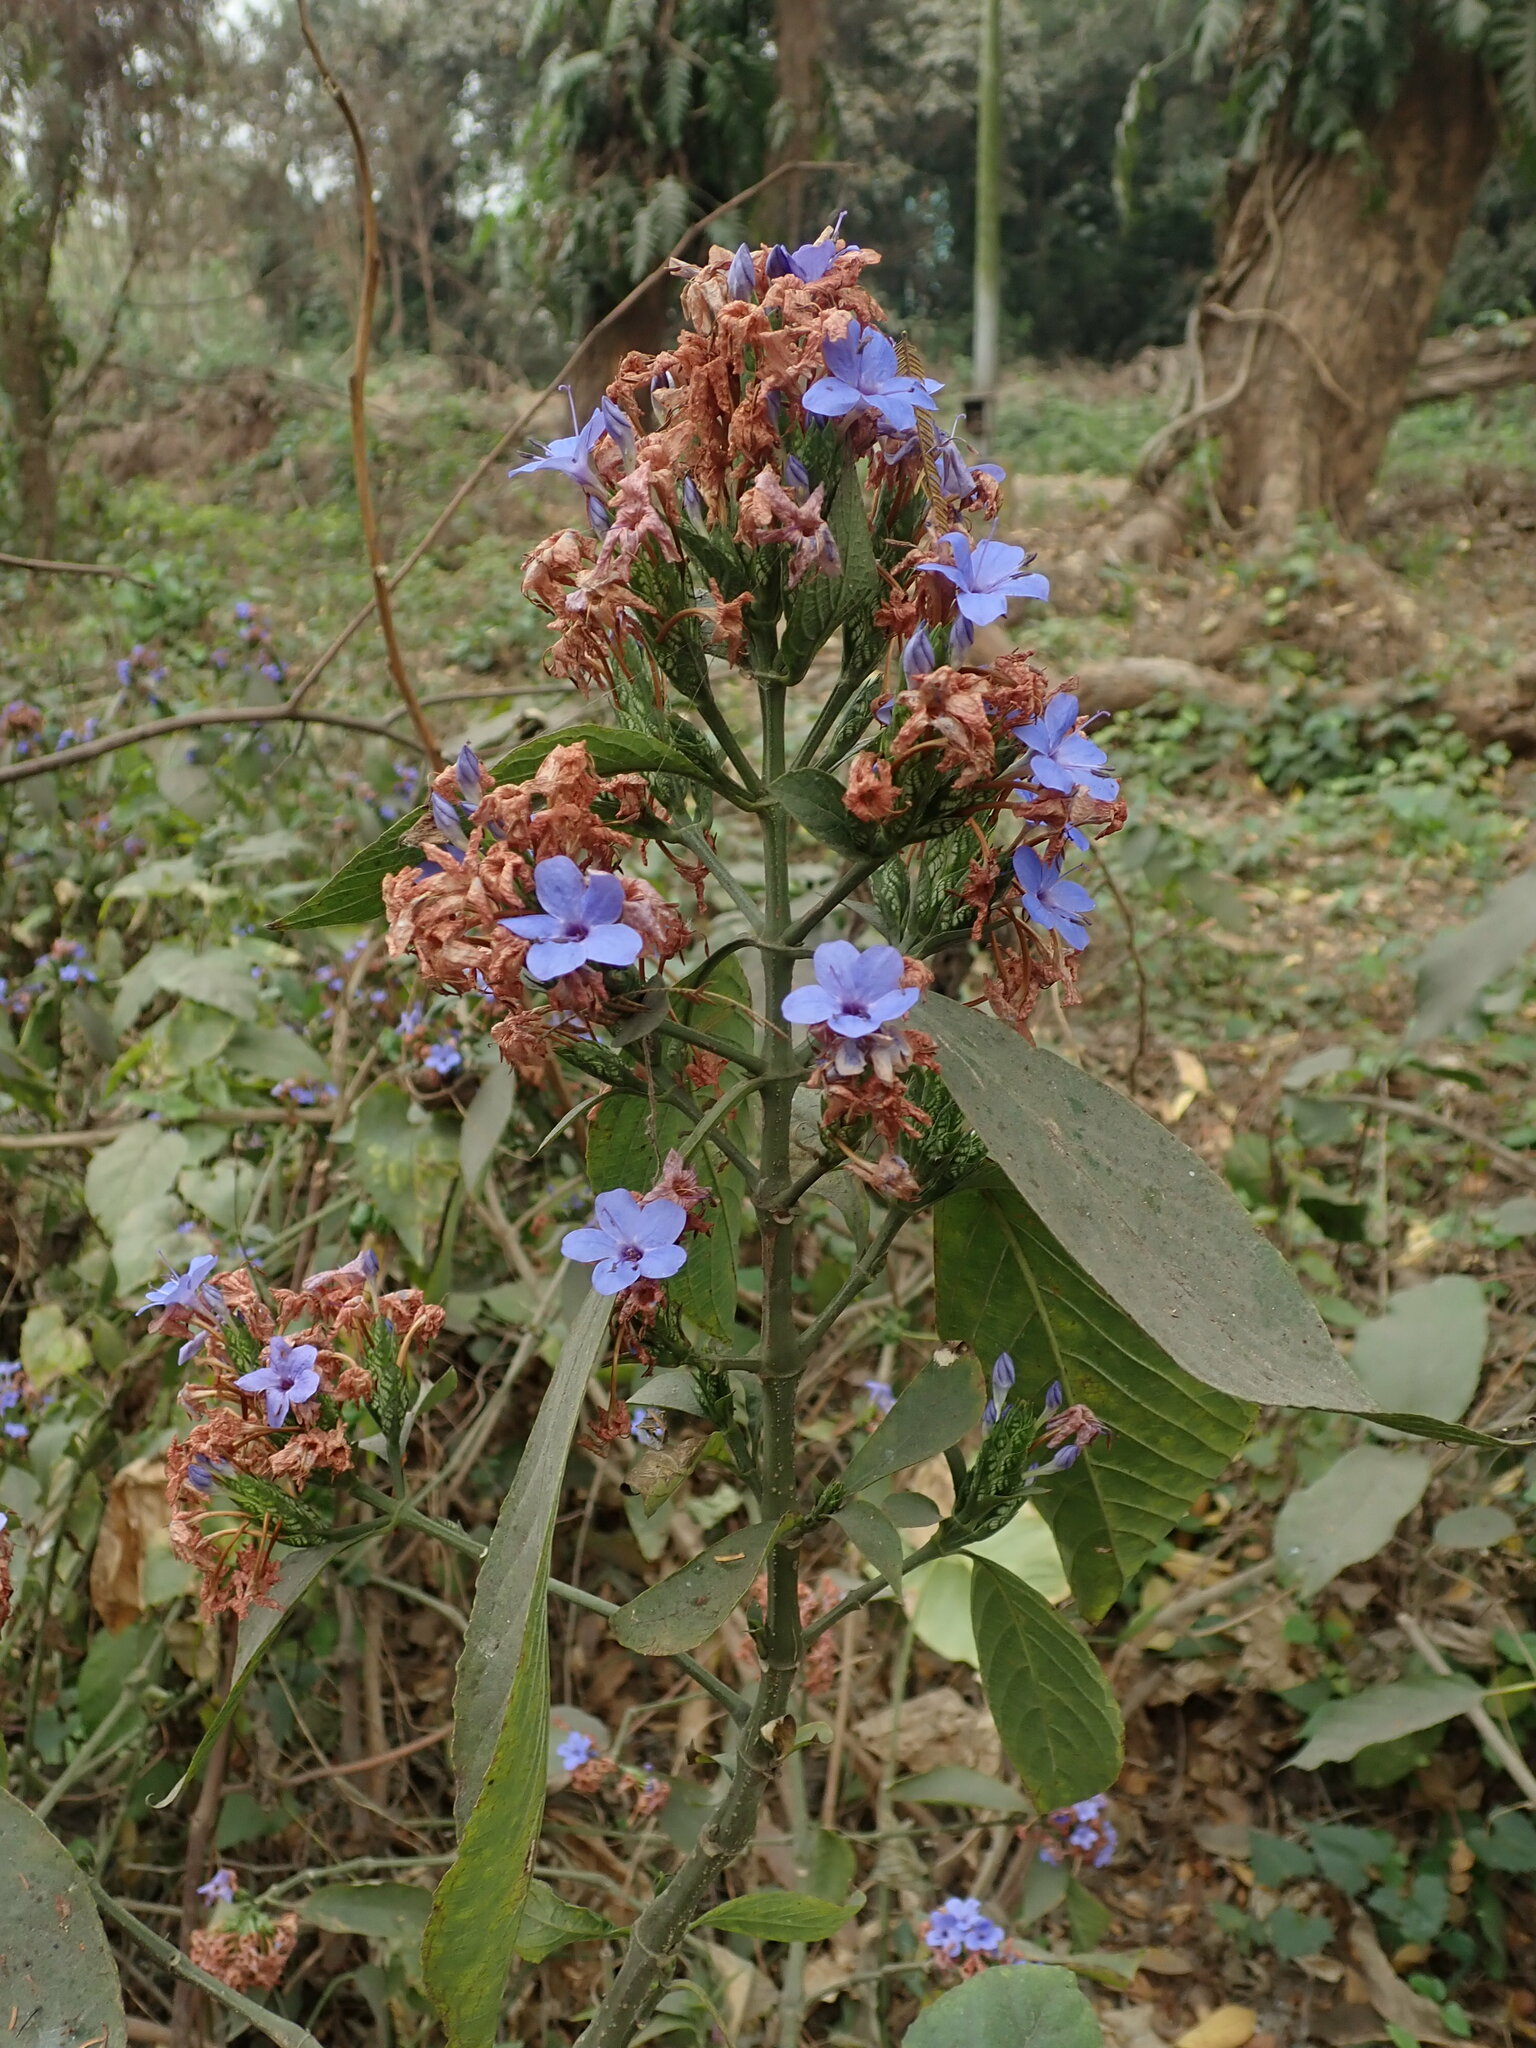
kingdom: Plantae
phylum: Tracheophyta
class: Magnoliopsida
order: Lamiales
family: Acanthaceae
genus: Eranthemum
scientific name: Eranthemum pulchellum
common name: Blue-sage
